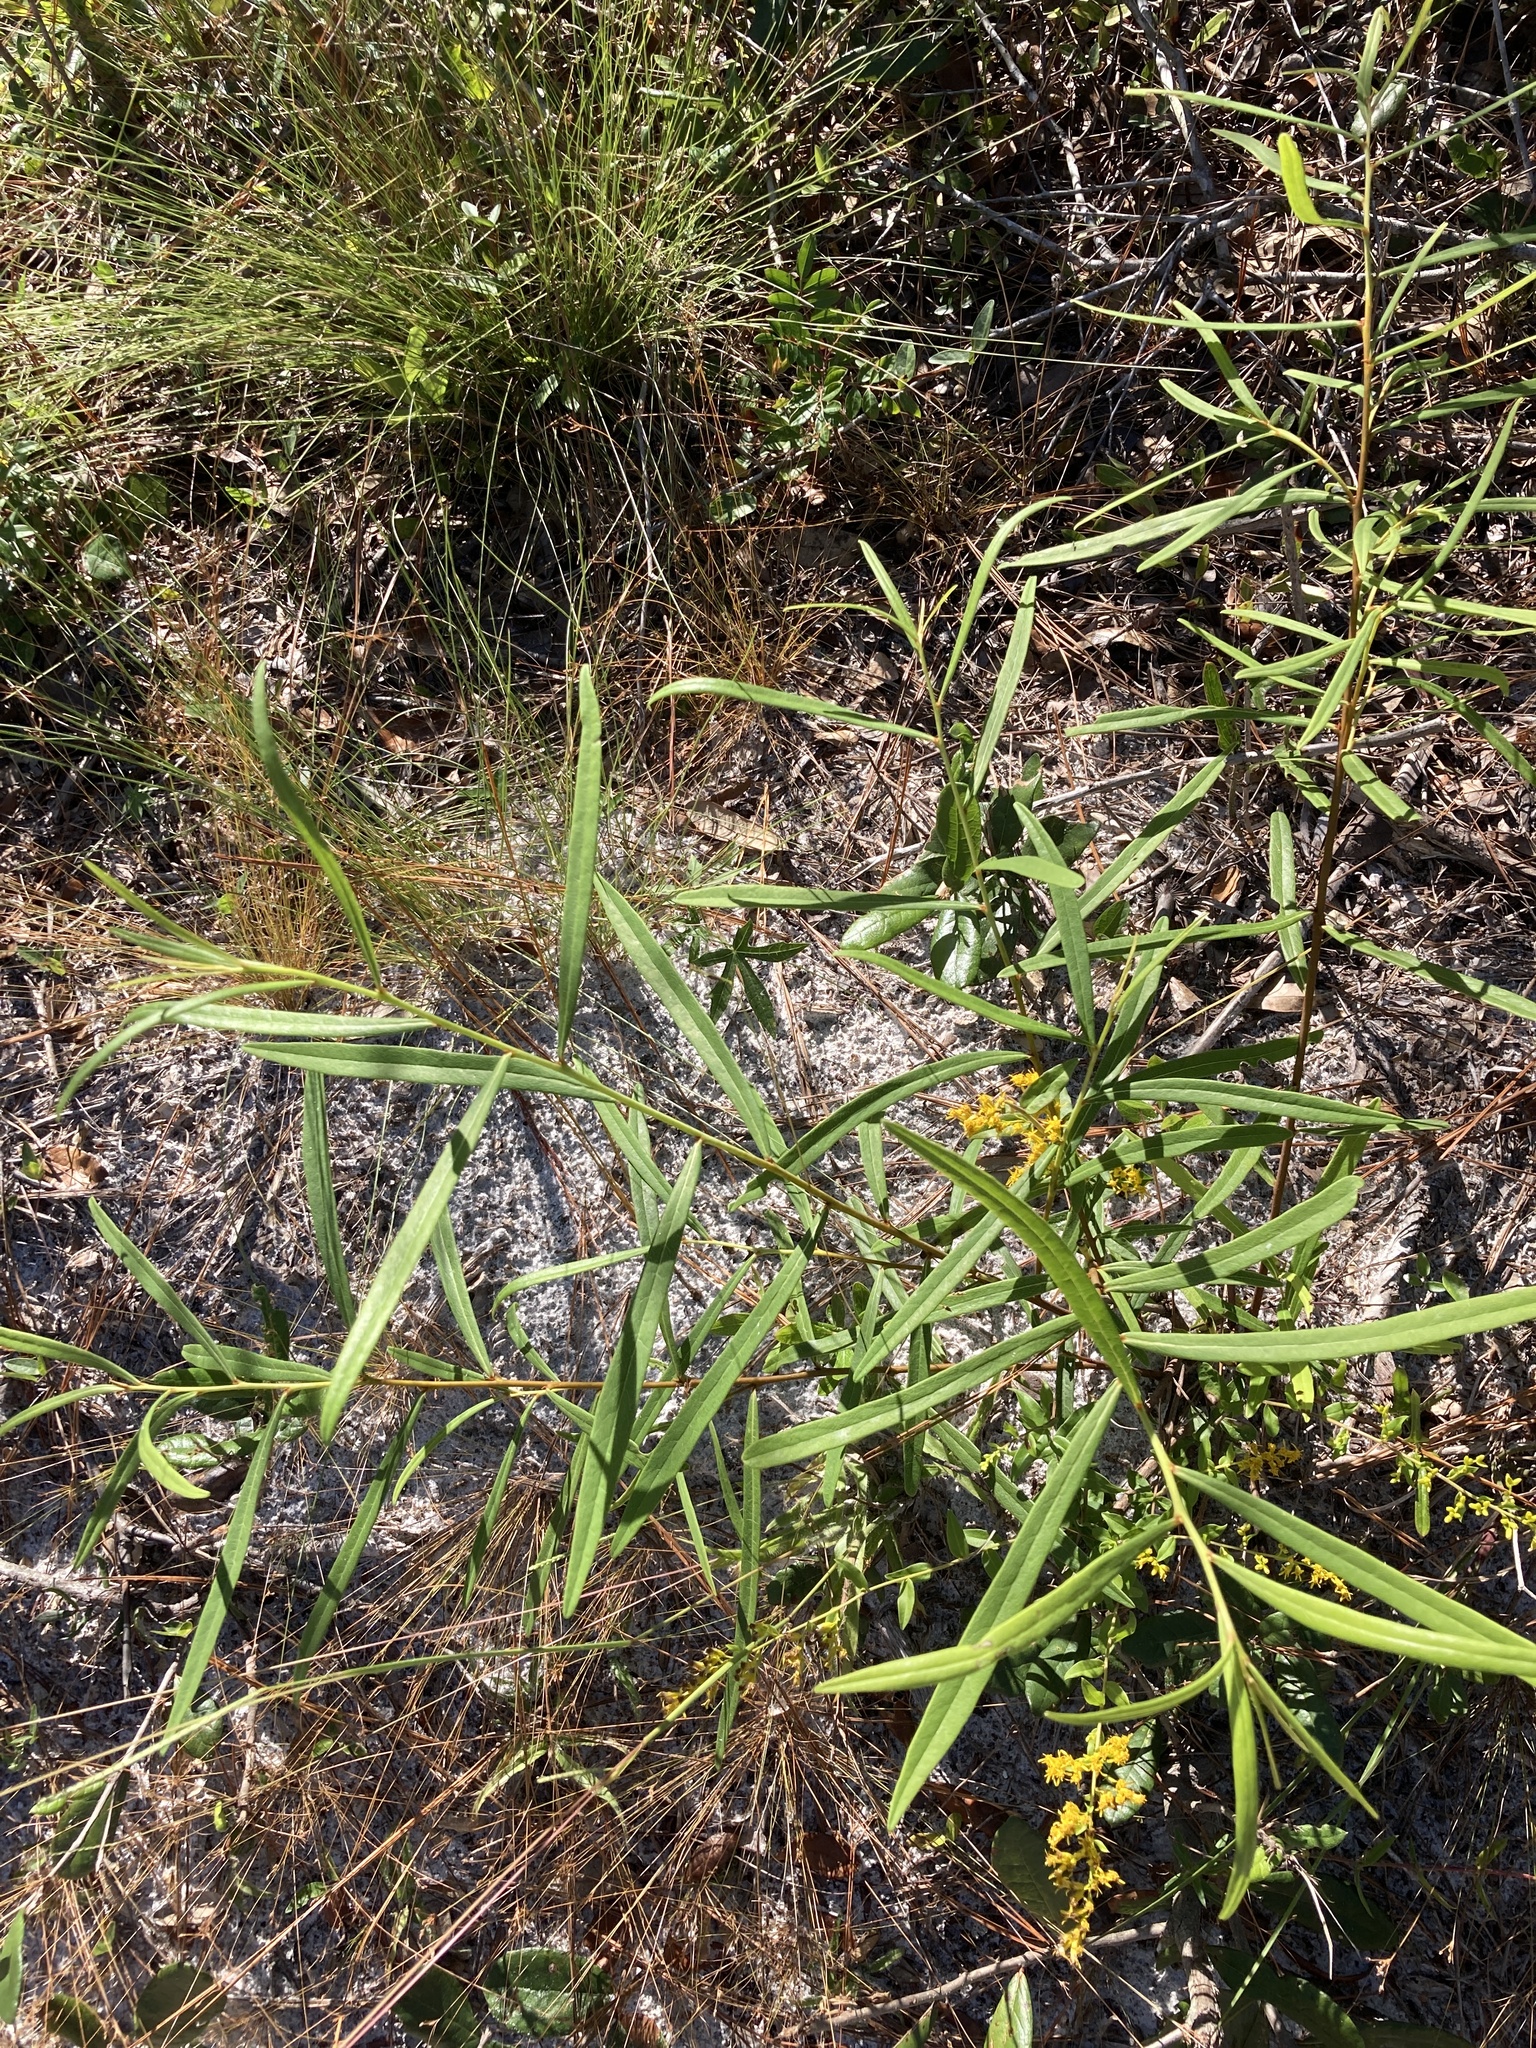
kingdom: Plantae
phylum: Tracheophyta
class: Magnoliopsida
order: Magnoliales
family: Annonaceae
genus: Asimina
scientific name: Asimina longifolia
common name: Polecatbush
